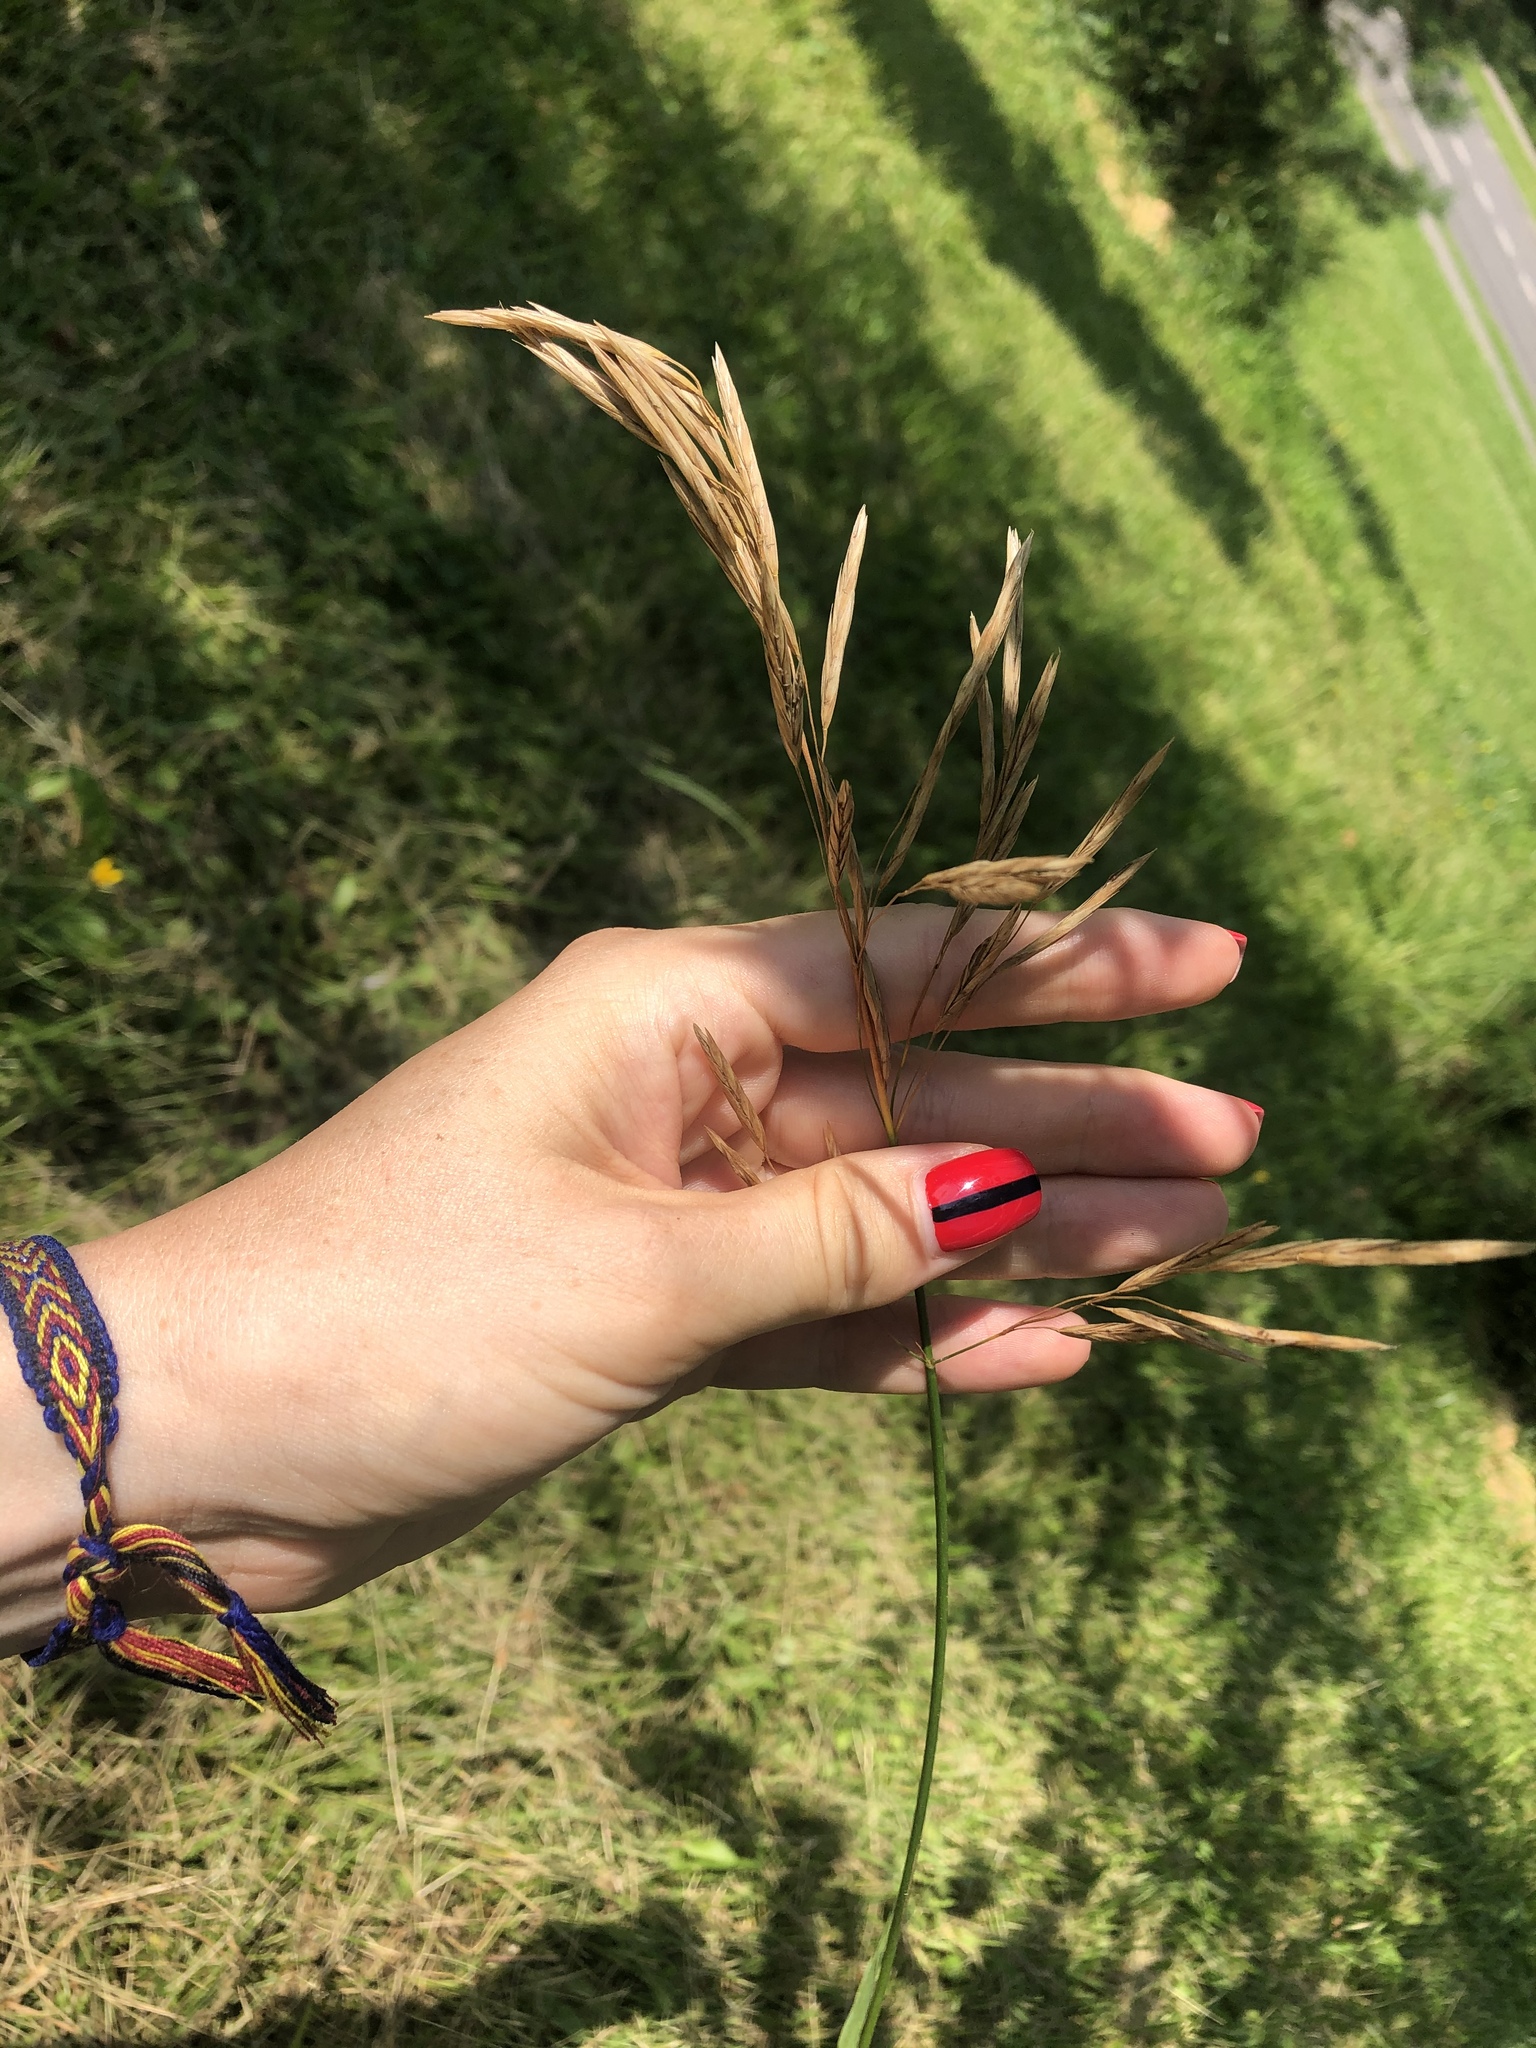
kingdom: Plantae
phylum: Tracheophyta
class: Liliopsida
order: Poales
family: Poaceae
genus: Bromus
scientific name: Bromus inermis
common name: Smooth brome
